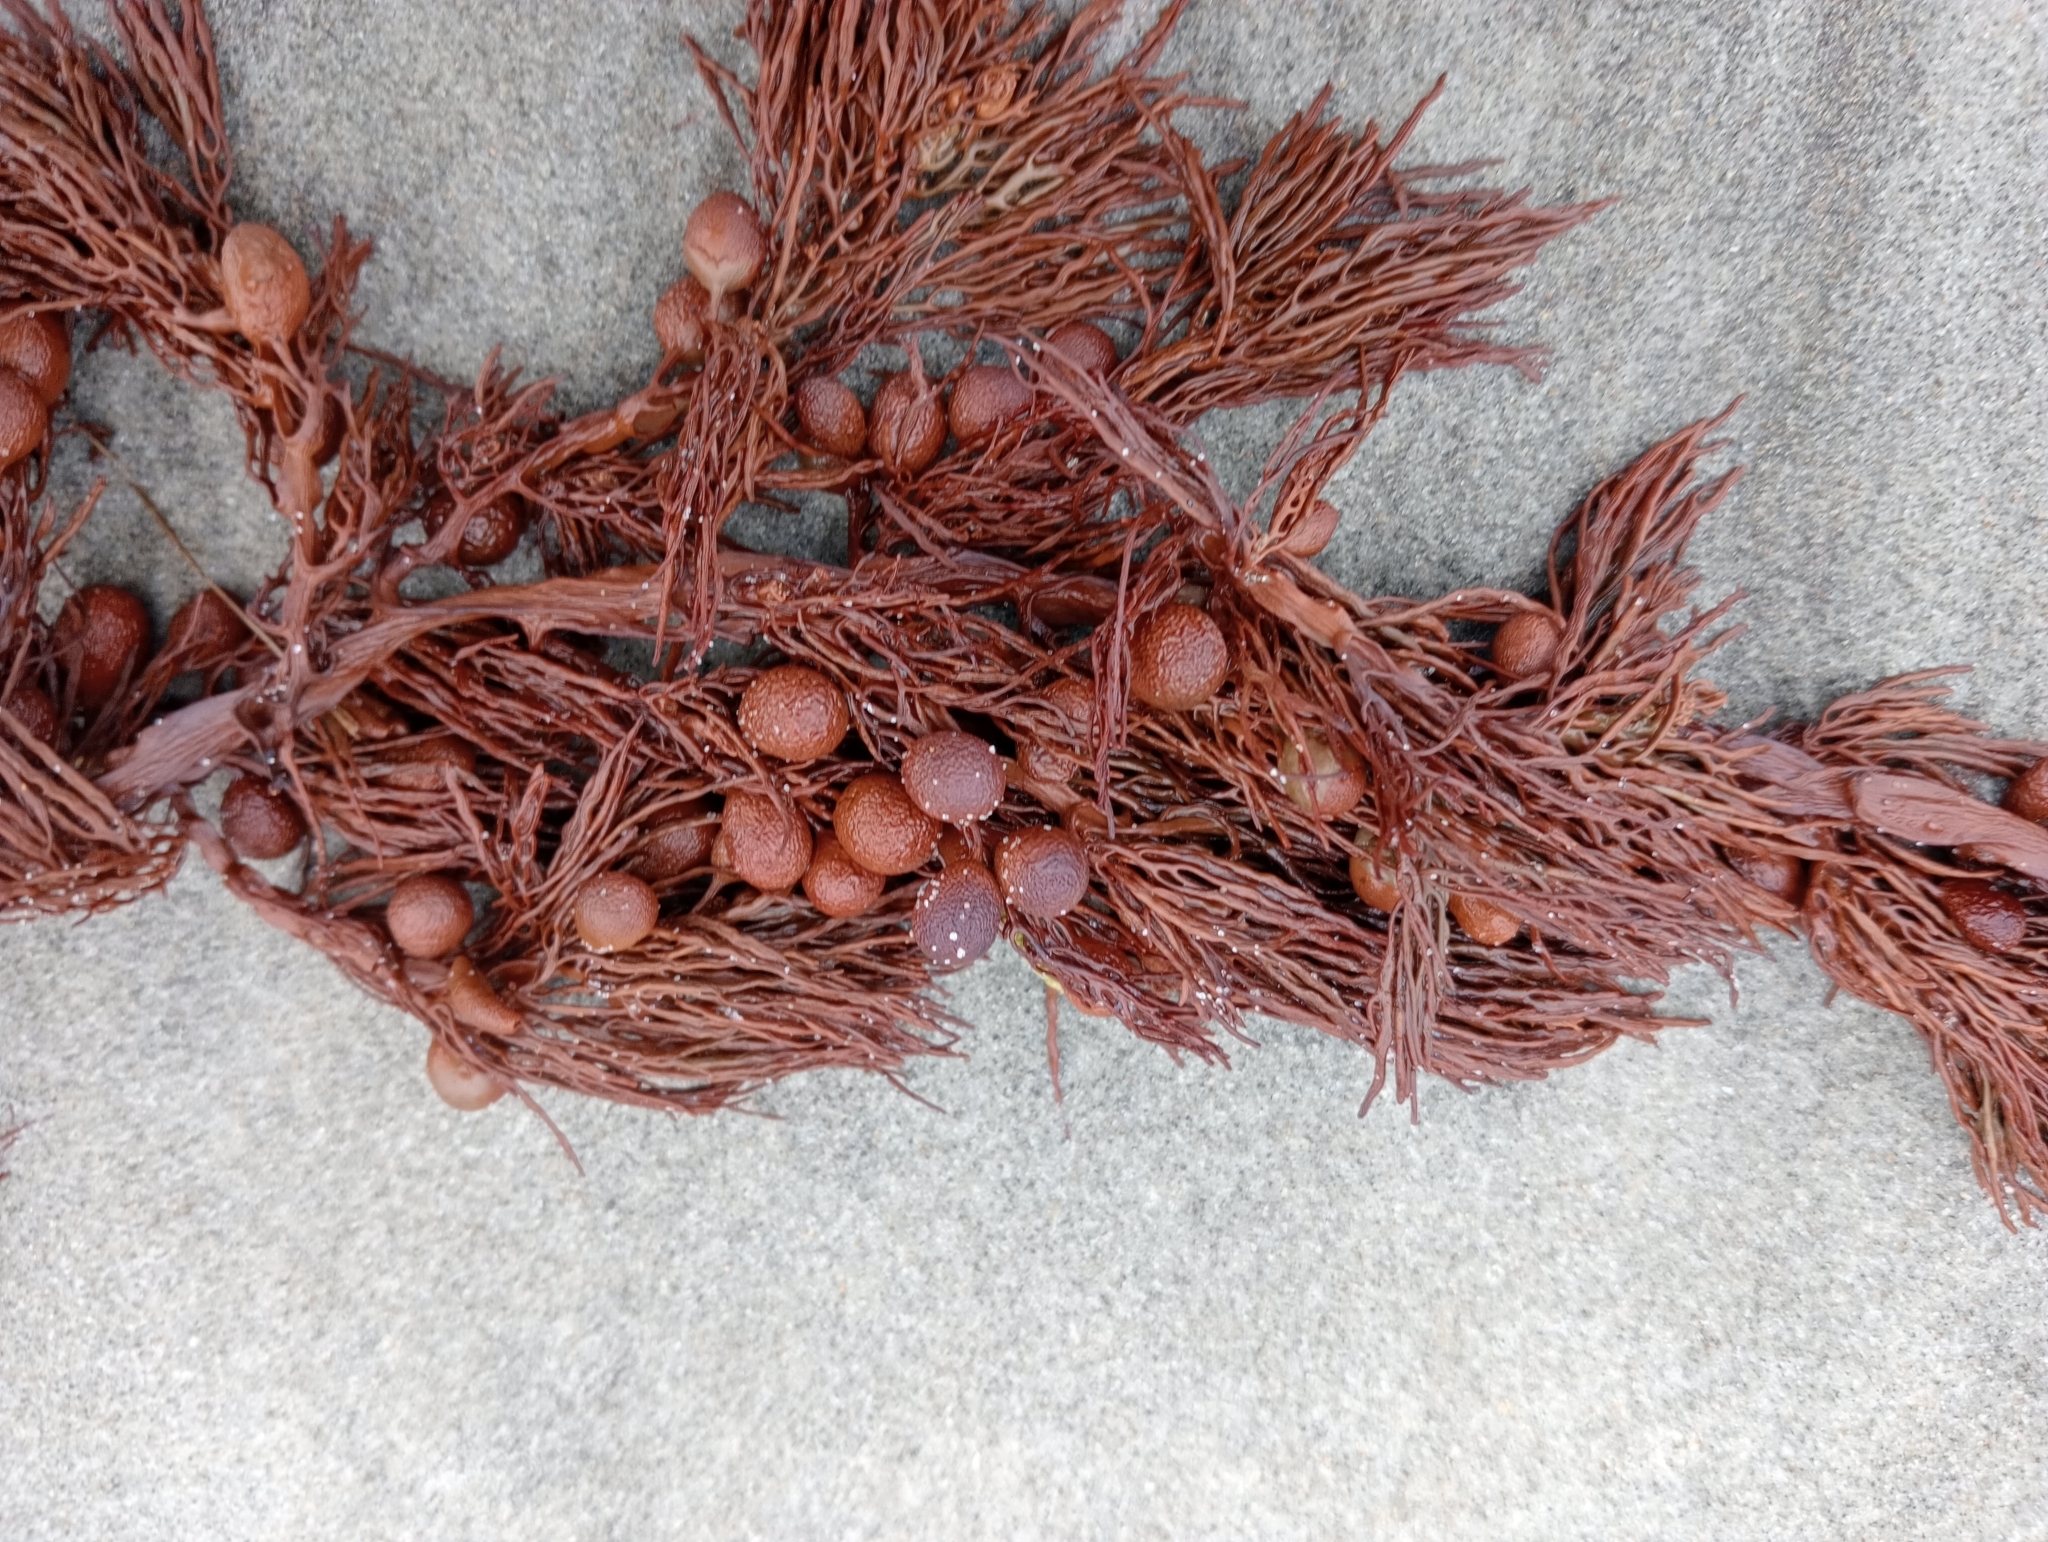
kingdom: Chromista
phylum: Ochrophyta
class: Phaeophyceae
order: Fucales
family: Sargassaceae
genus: Cystophora
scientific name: Cystophora retroflexa
